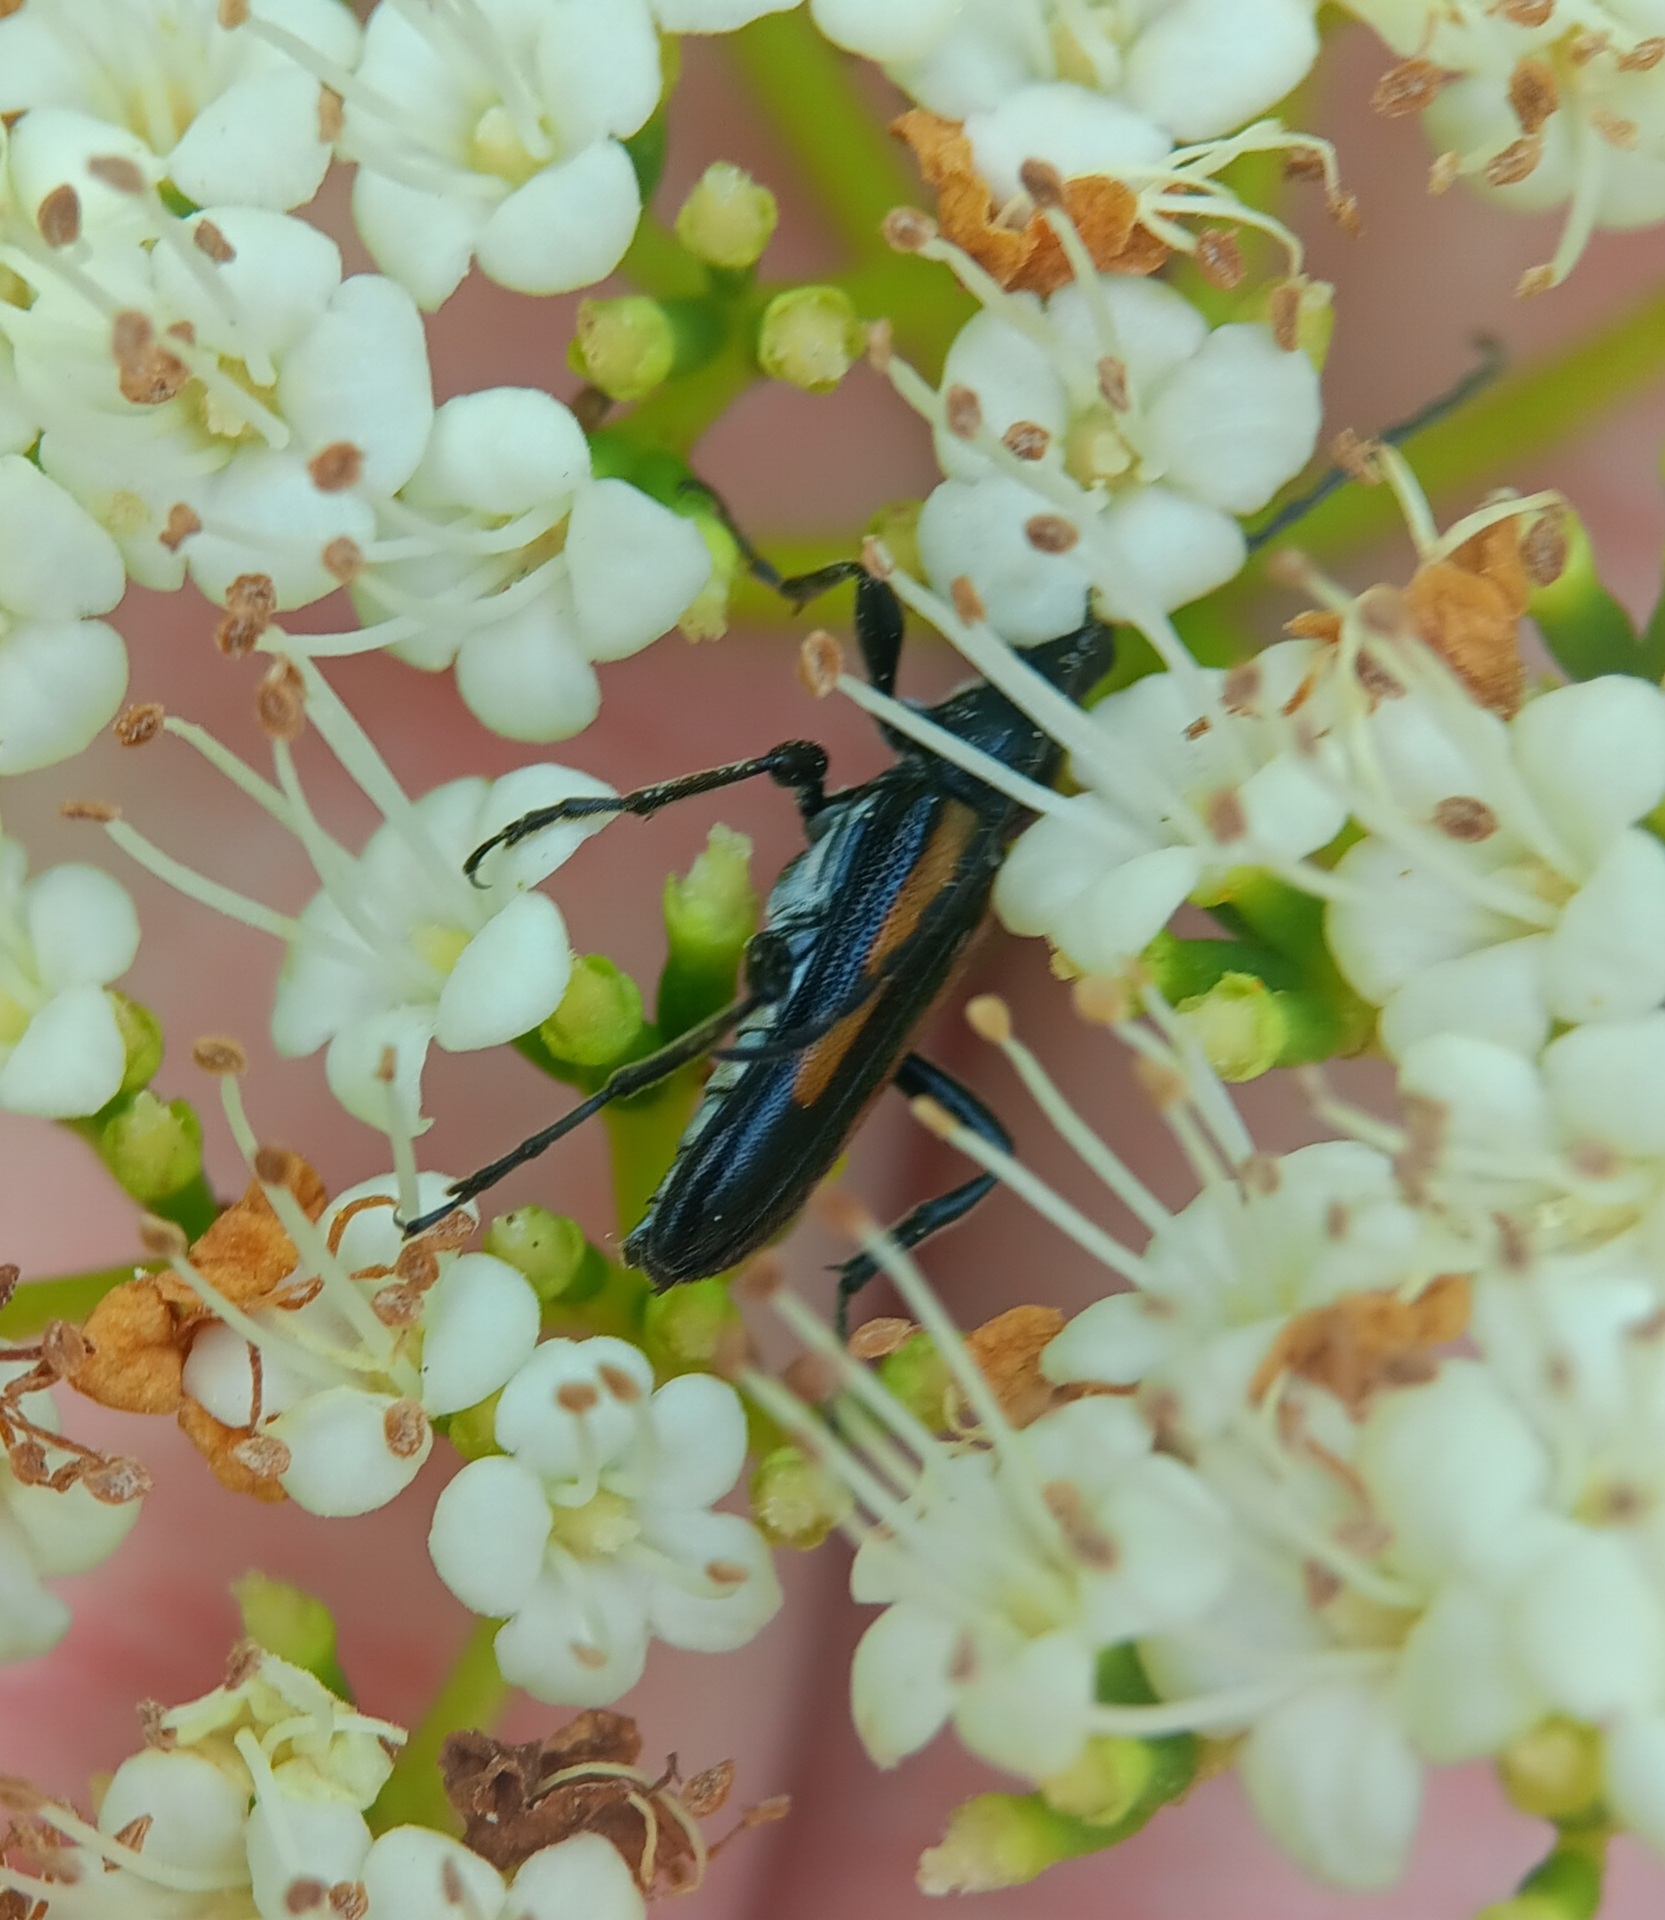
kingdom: Animalia
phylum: Arthropoda
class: Insecta
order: Coleoptera
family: Cerambycidae
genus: Strangalepta
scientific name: Strangalepta abbreviata
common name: Strangalepta flower longhorn beetle
